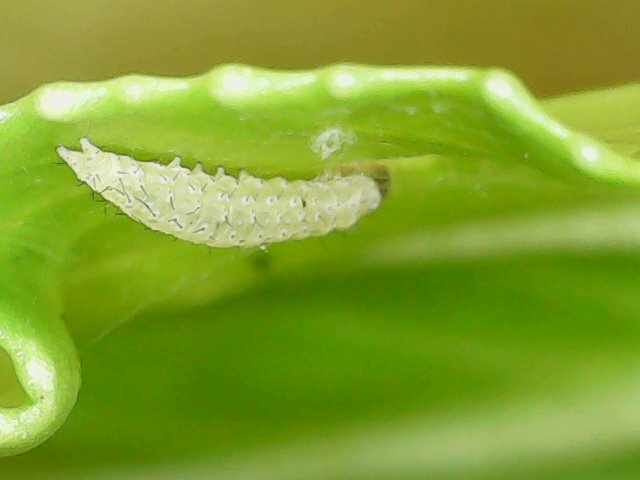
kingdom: Animalia
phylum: Arthropoda
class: Insecta
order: Lepidoptera
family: Plutellidae
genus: Plutella
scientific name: Plutella xylostella
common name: Diamond-back moth
